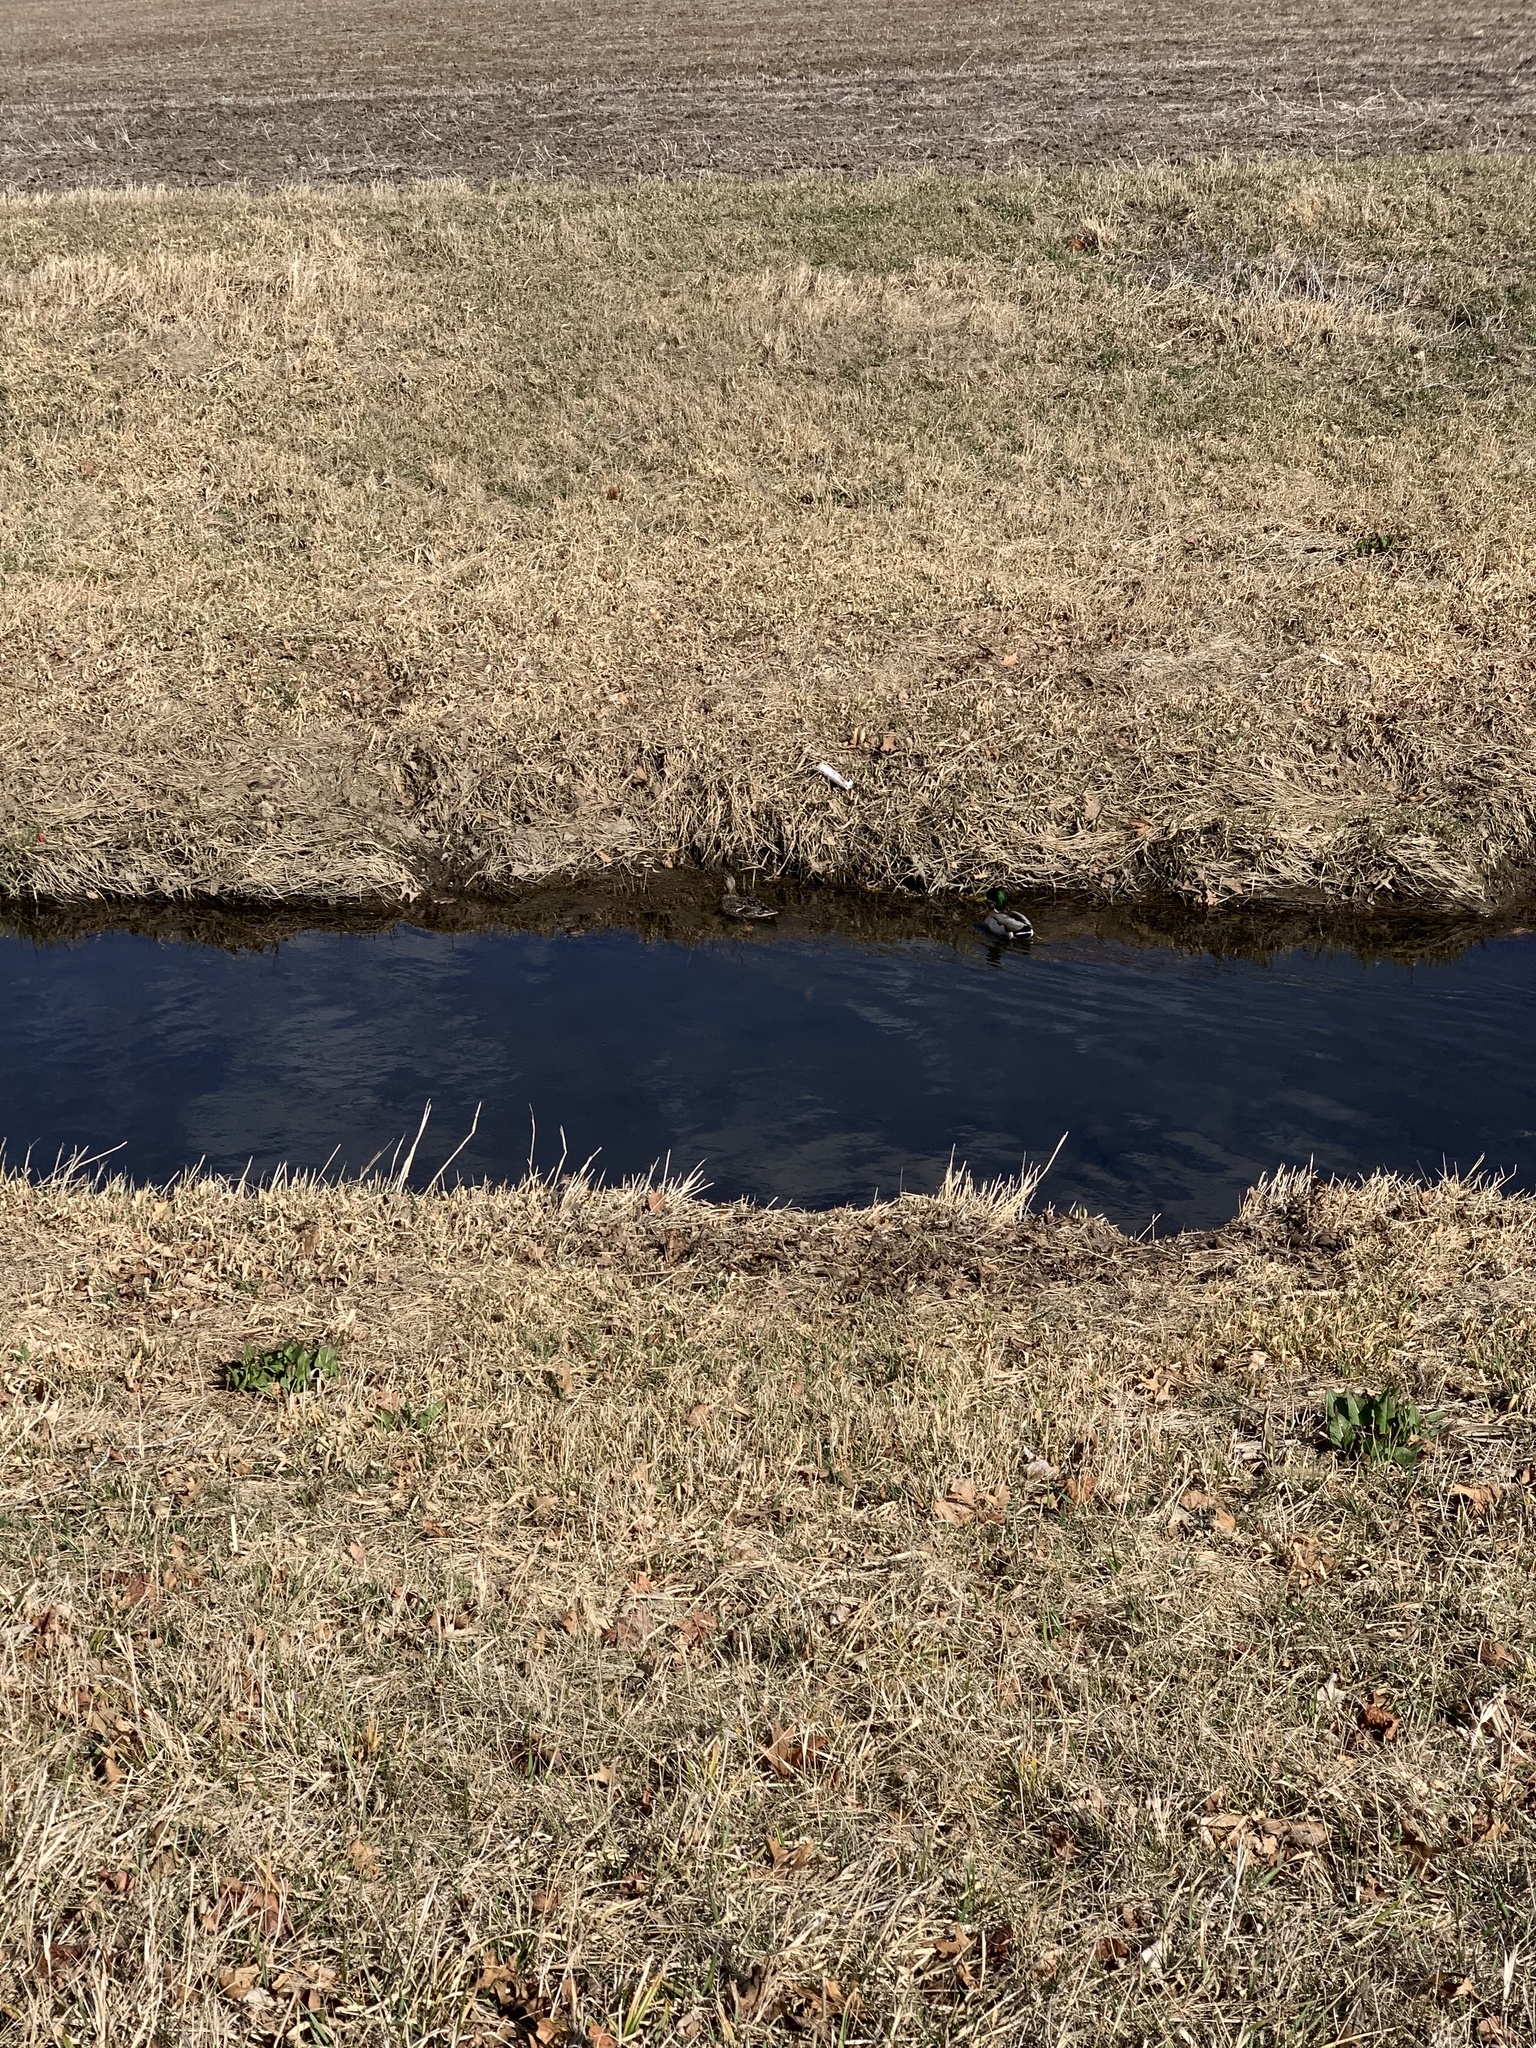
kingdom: Animalia
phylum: Chordata
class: Aves
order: Anseriformes
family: Anatidae
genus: Anas
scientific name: Anas platyrhynchos
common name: Mallard
